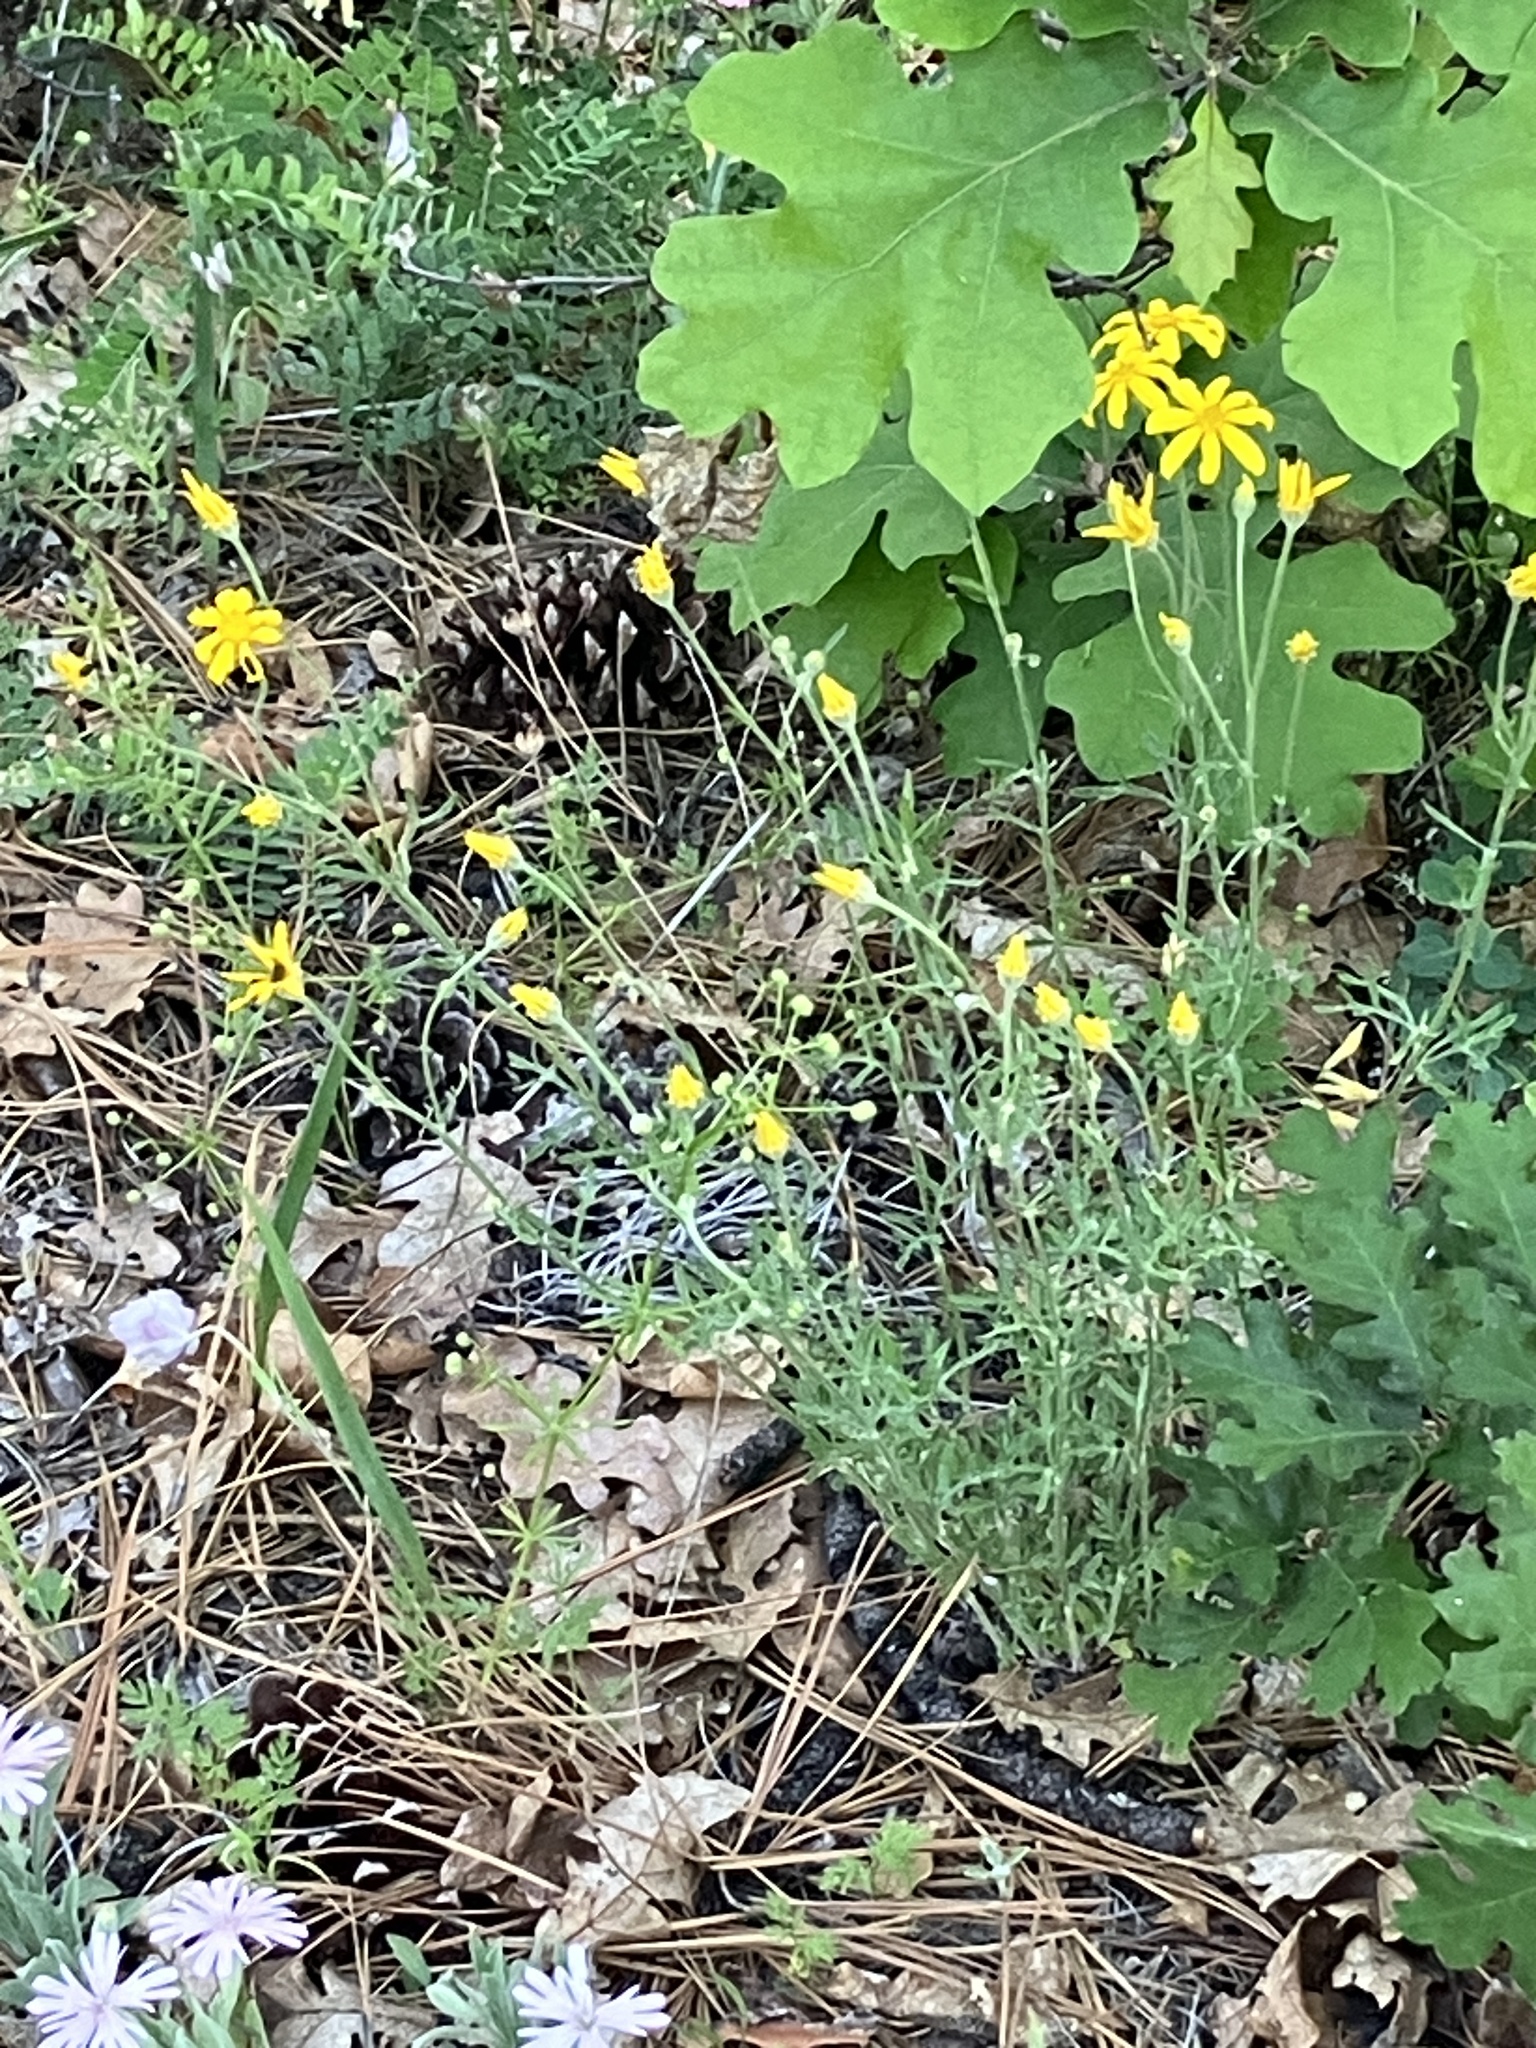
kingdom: Plantae
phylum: Tracheophyta
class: Magnoliopsida
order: Asterales
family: Asteraceae
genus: Eriophyllum
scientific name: Eriophyllum lanatum
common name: Common woolly-sunflower
